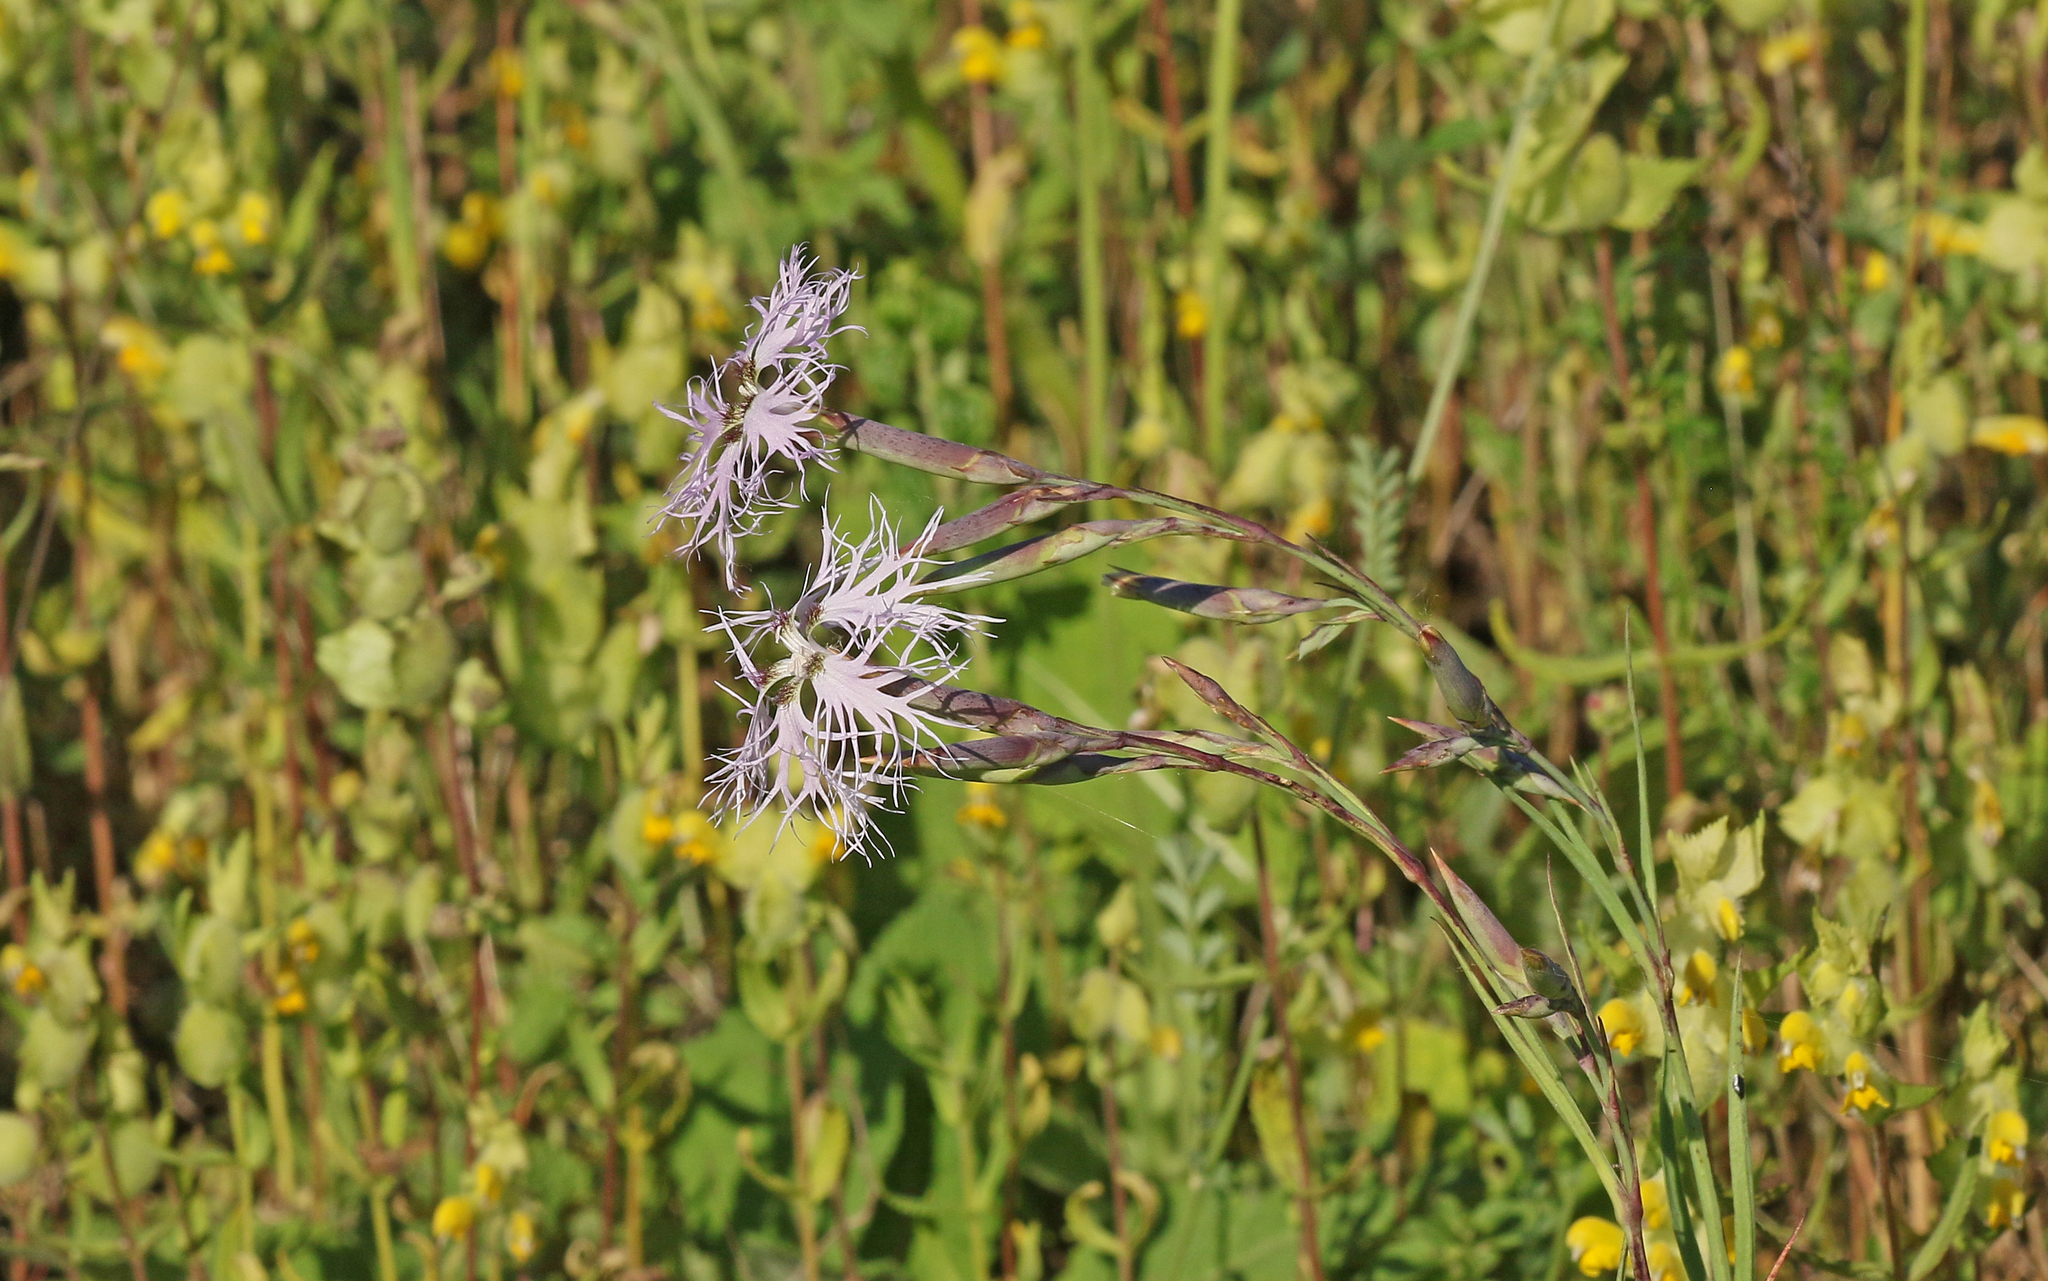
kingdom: Plantae
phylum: Tracheophyta
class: Magnoliopsida
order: Caryophyllales
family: Caryophyllaceae
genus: Dianthus
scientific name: Dianthus superbus
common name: Fringed pink
